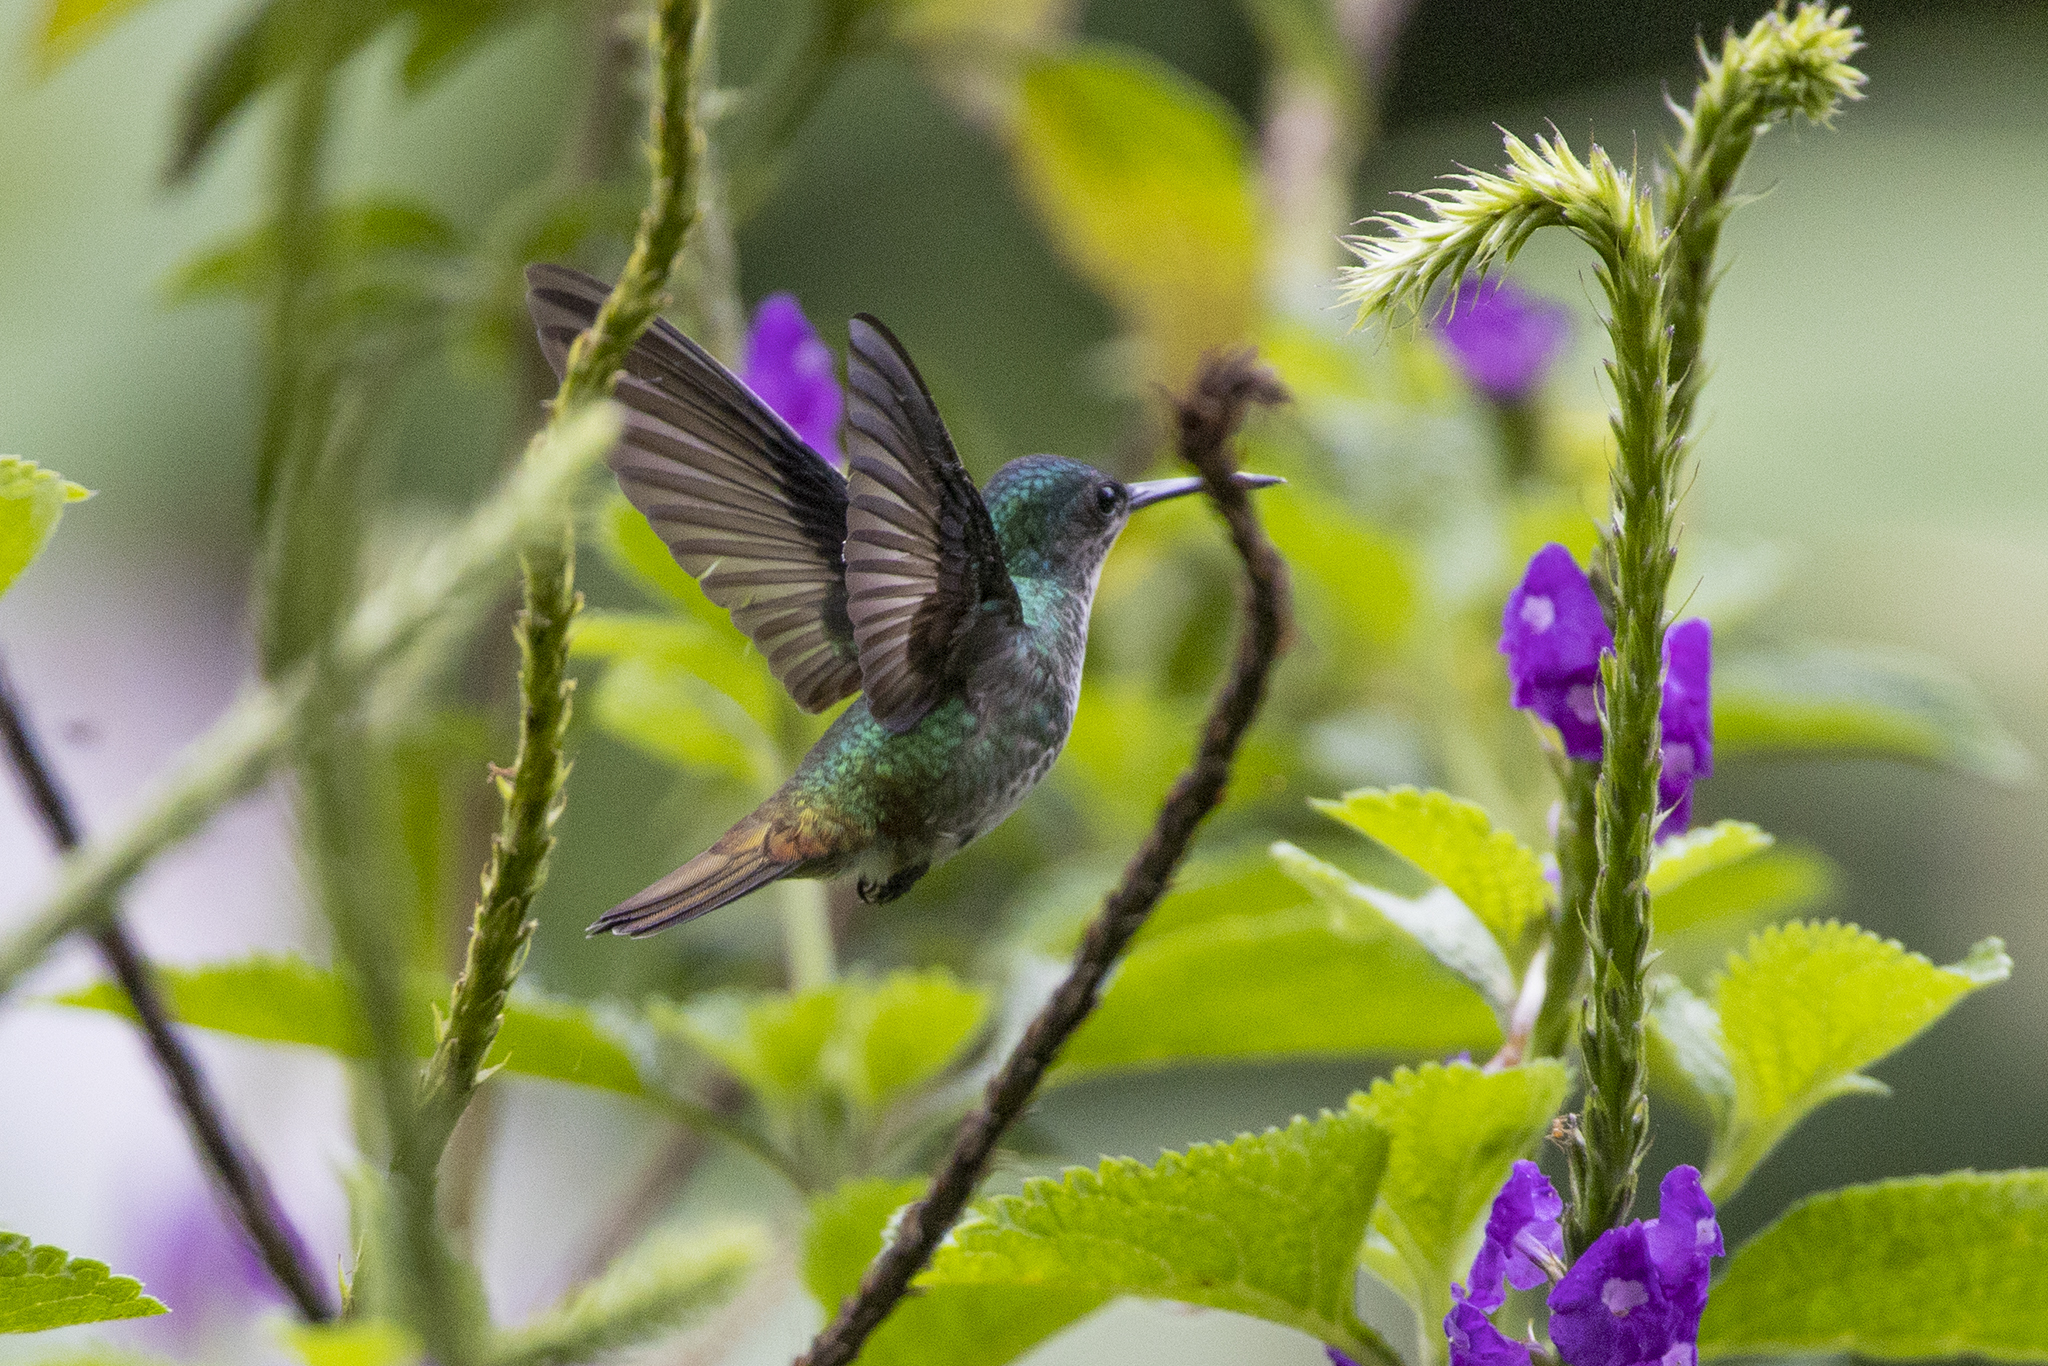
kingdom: Animalia
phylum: Chordata
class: Aves
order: Apodiformes
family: Trochilidae
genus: Chrysuronia
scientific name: Chrysuronia oenone
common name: Golden-tailed sapphire
